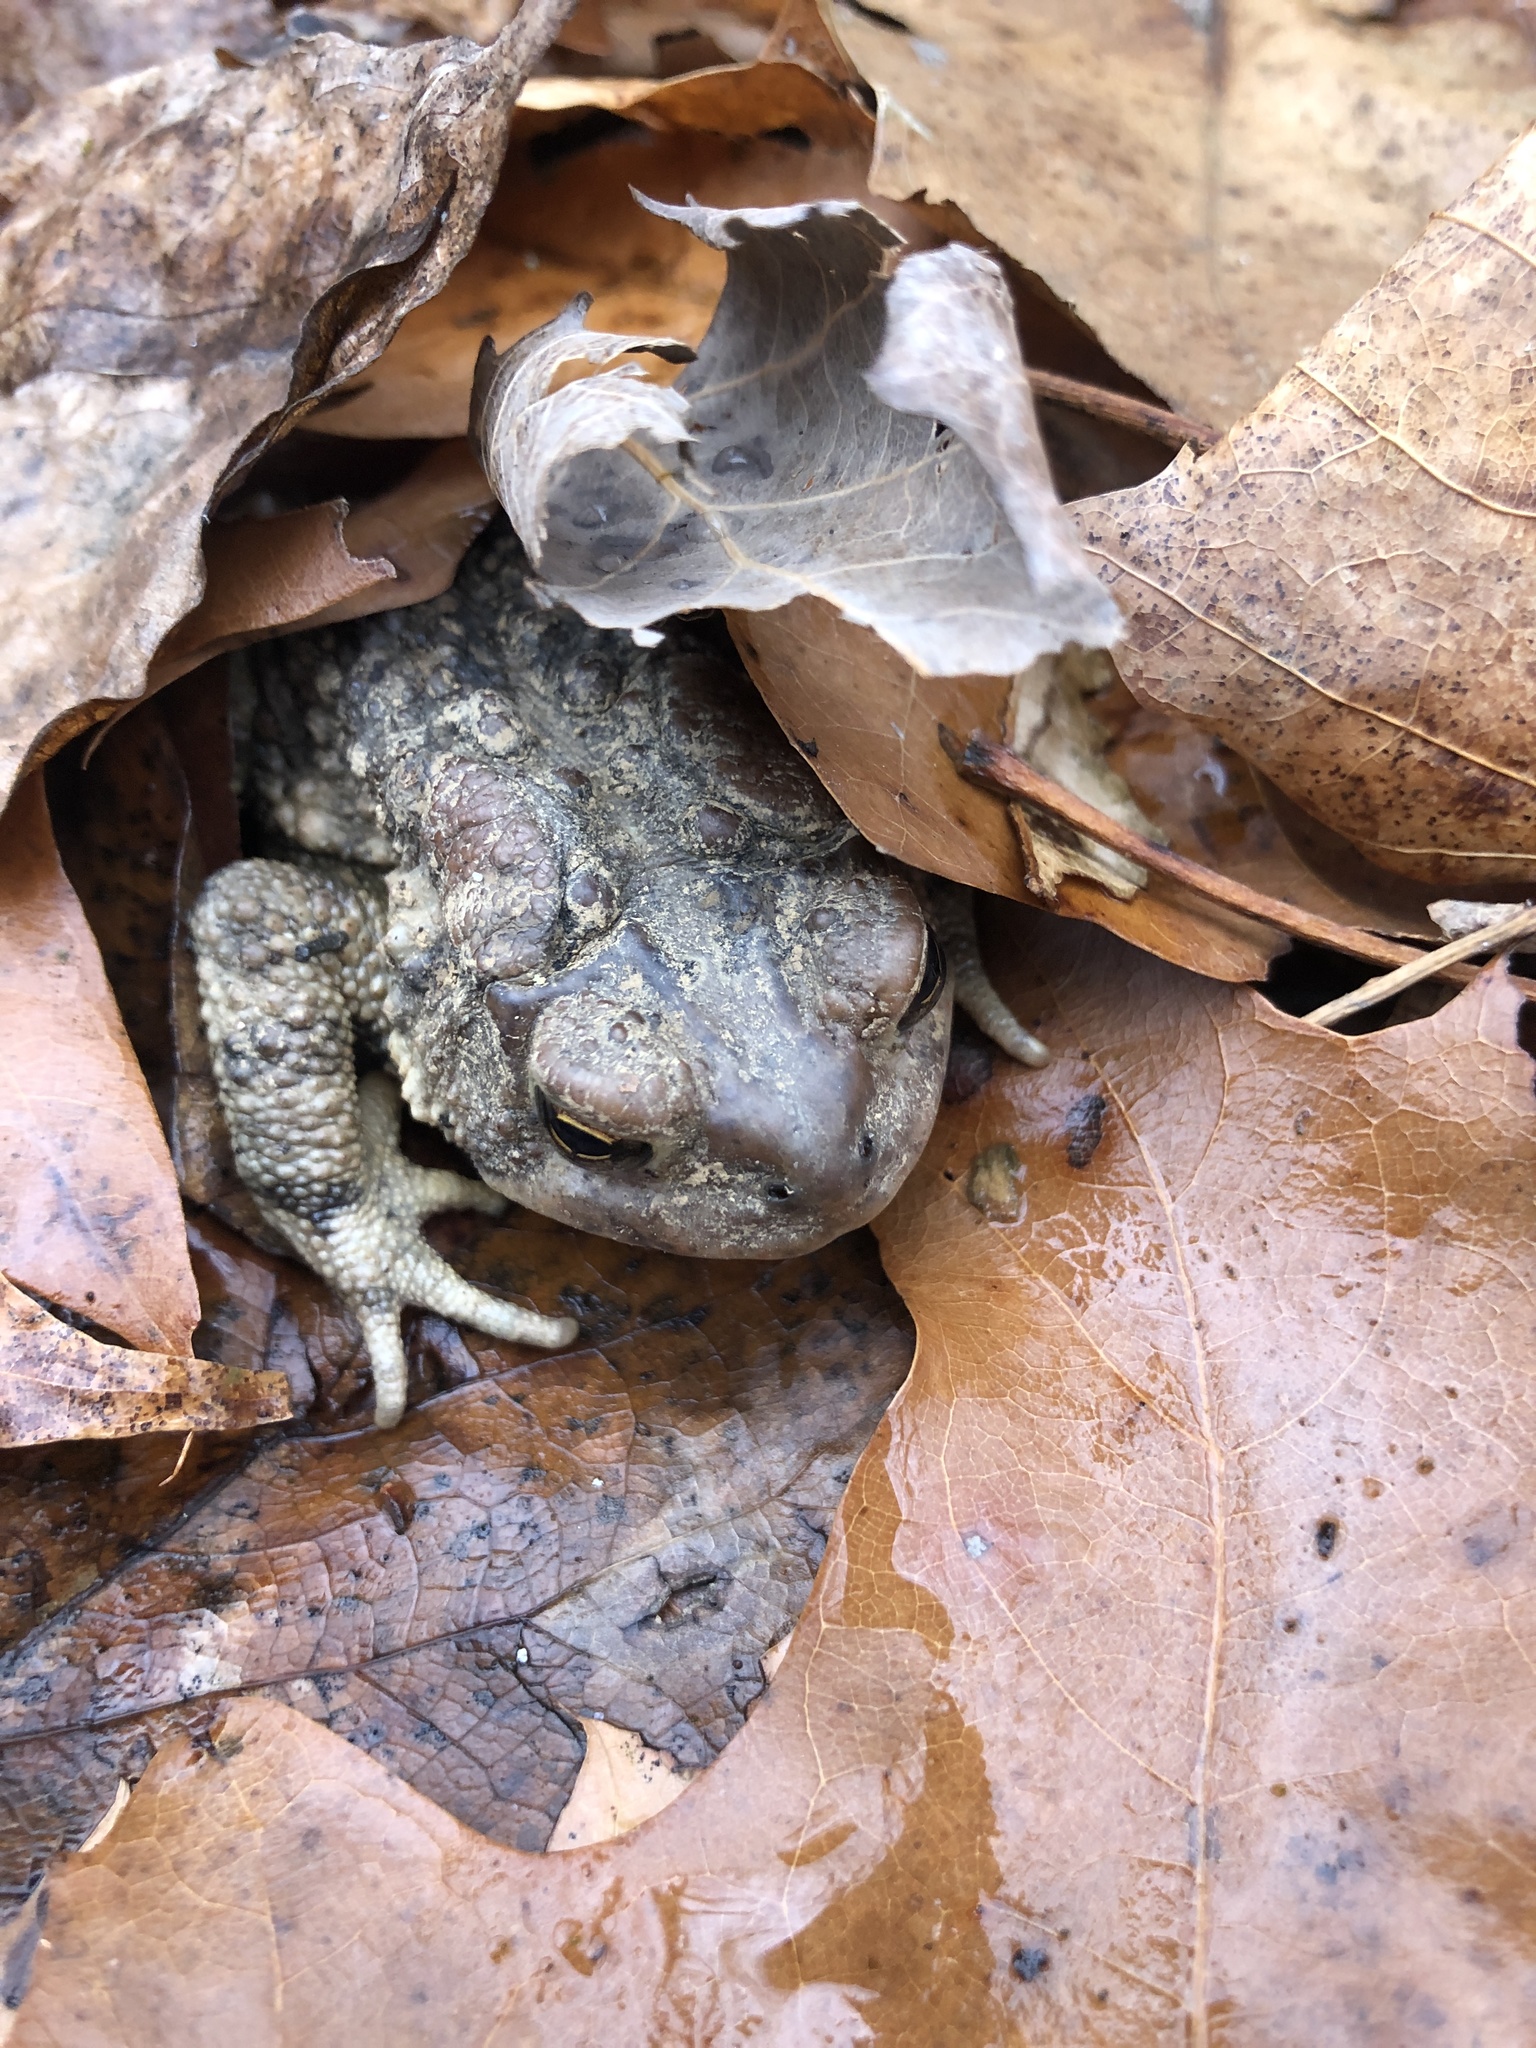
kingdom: Animalia
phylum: Chordata
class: Amphibia
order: Anura
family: Bufonidae
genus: Anaxyrus
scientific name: Anaxyrus americanus
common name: American toad
